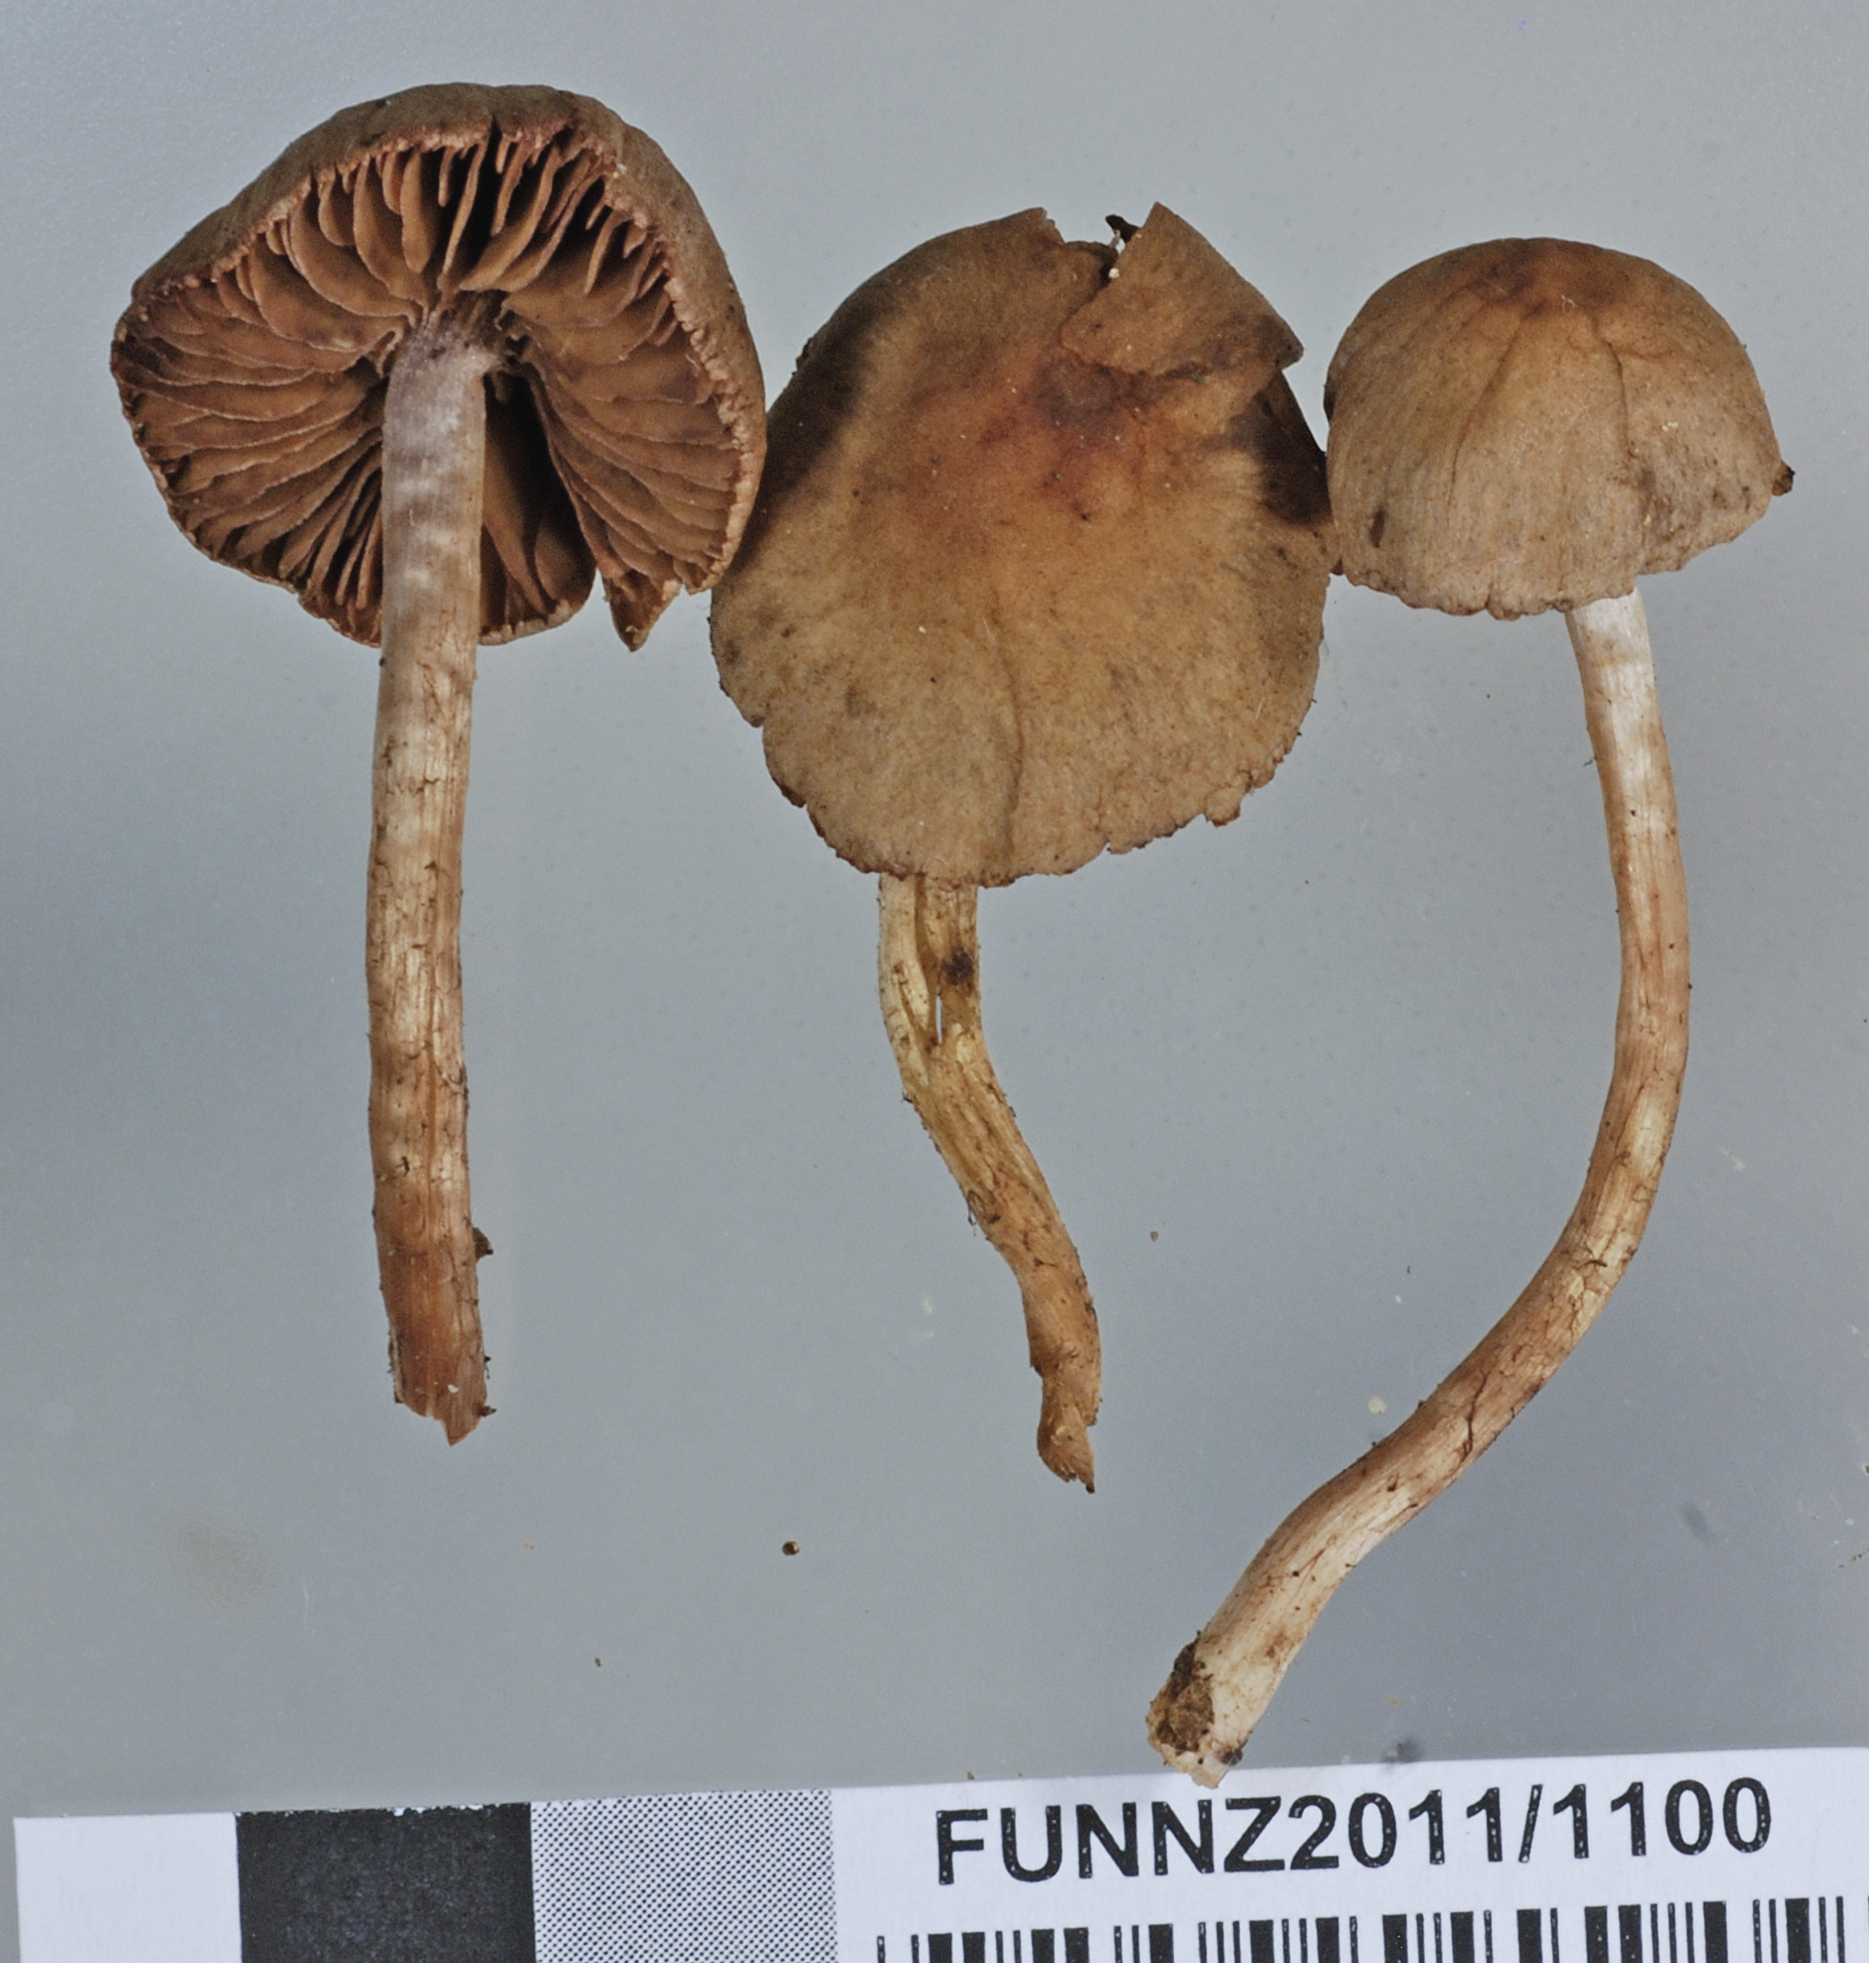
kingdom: Fungi
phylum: Basidiomycota
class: Agaricomycetes
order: Agaricales
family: Cortinariaceae
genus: Cortinarius
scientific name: Cortinarius durifoliorum
